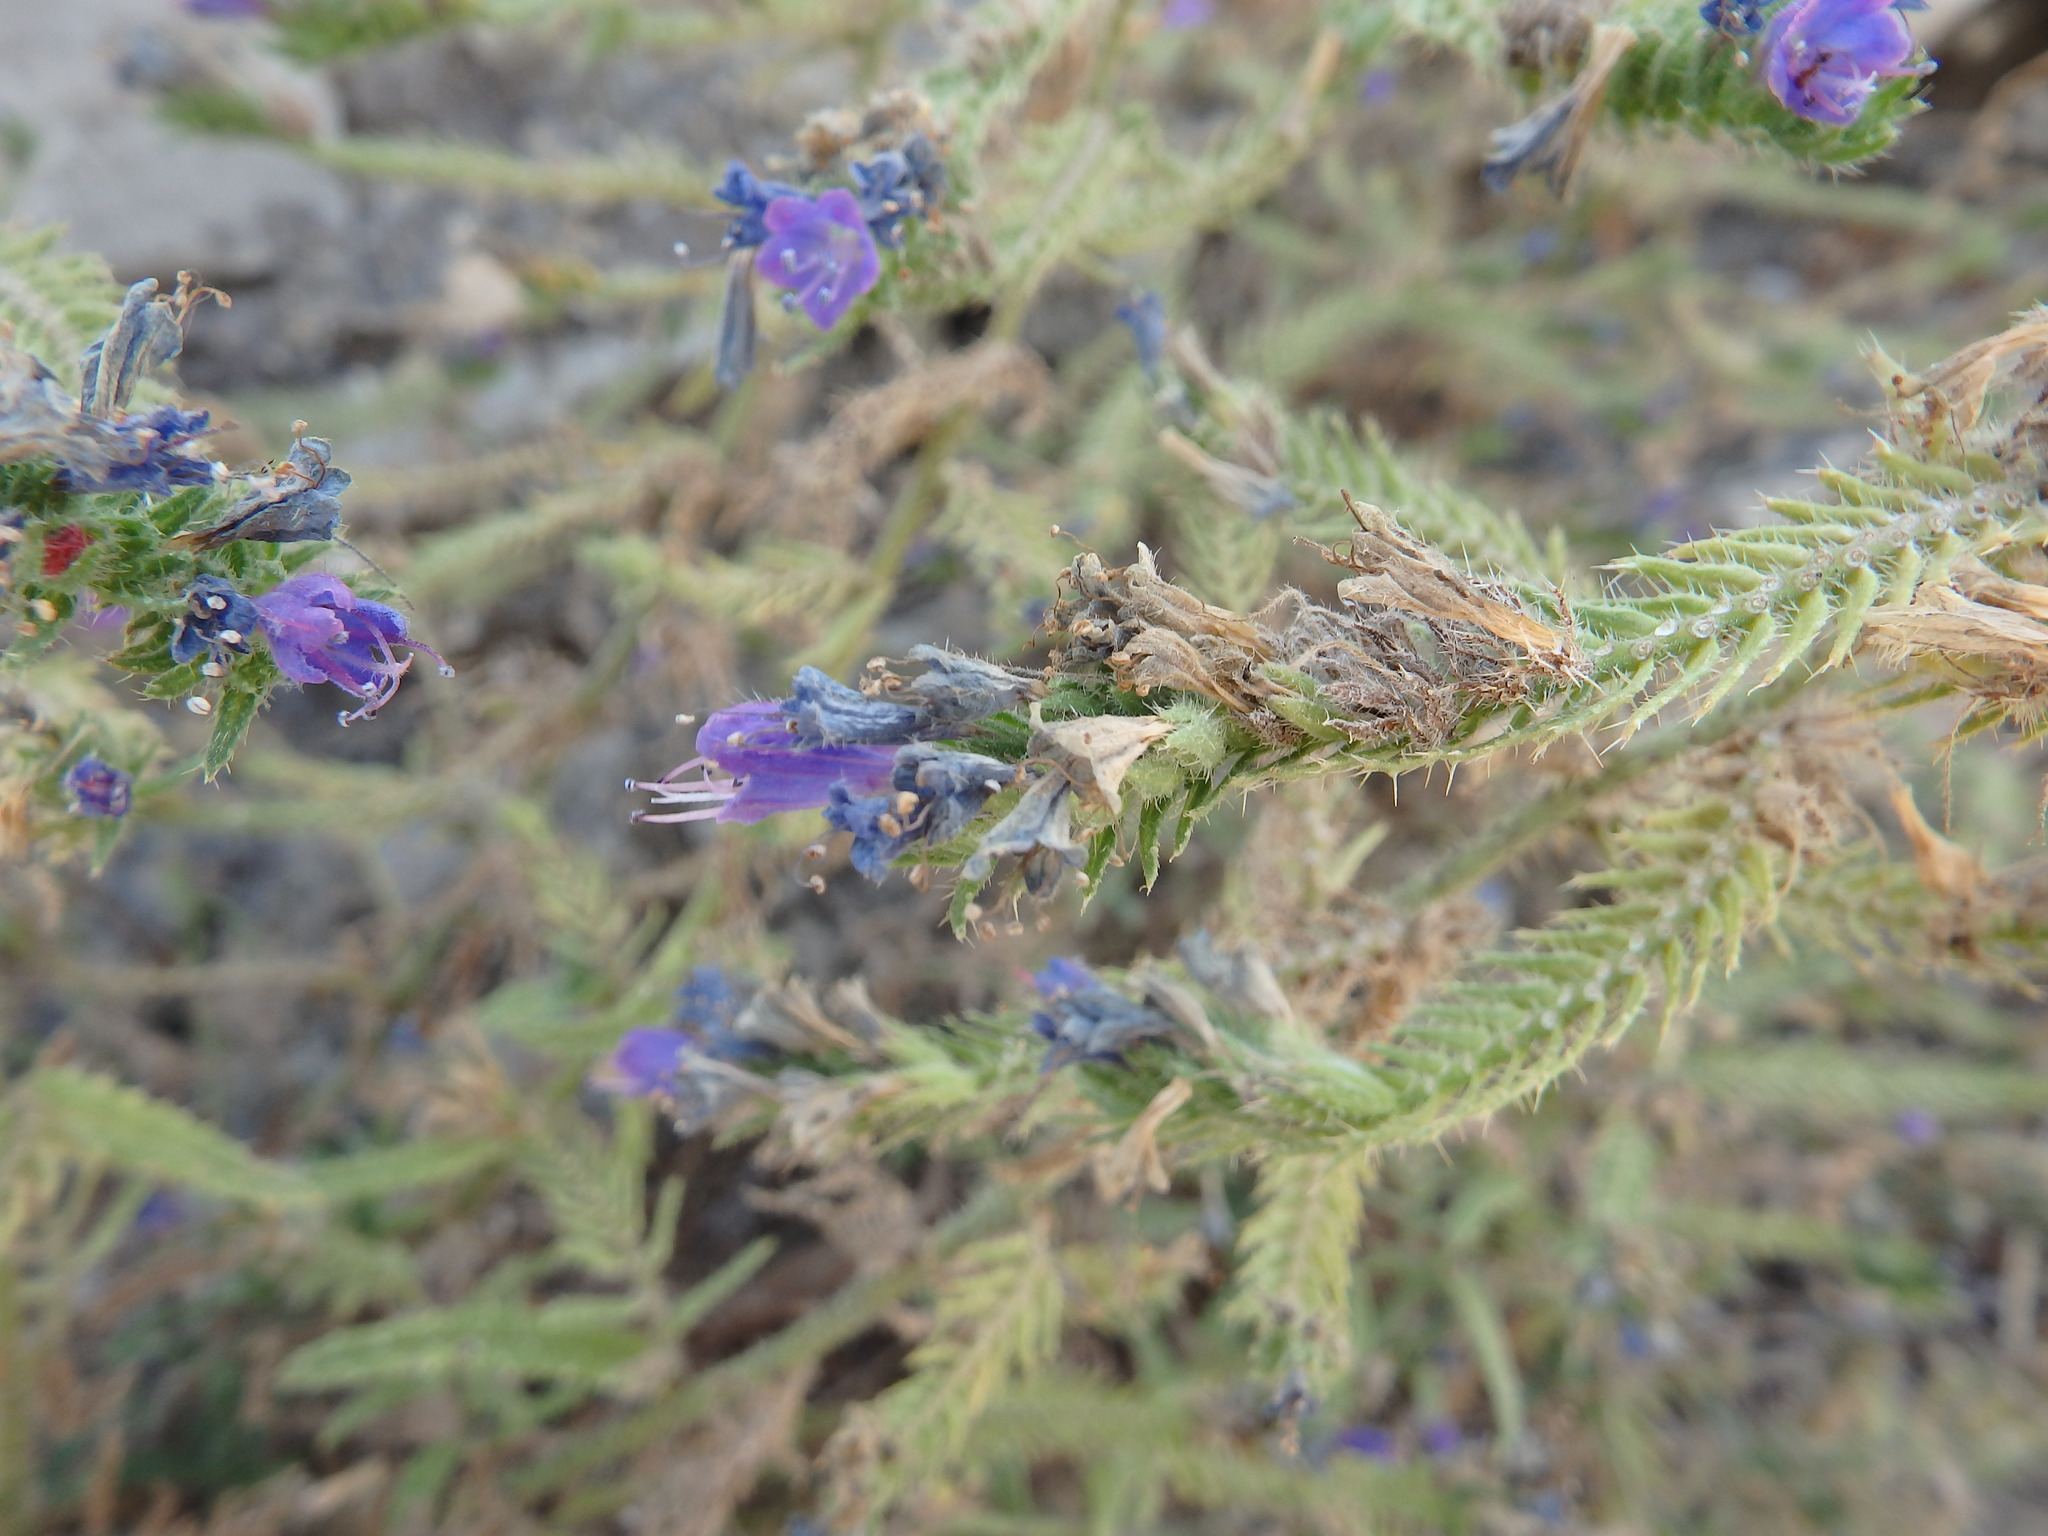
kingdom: Plantae
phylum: Tracheophyta
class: Magnoliopsida
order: Boraginales
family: Boraginaceae
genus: Echium
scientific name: Echium gaditanum
